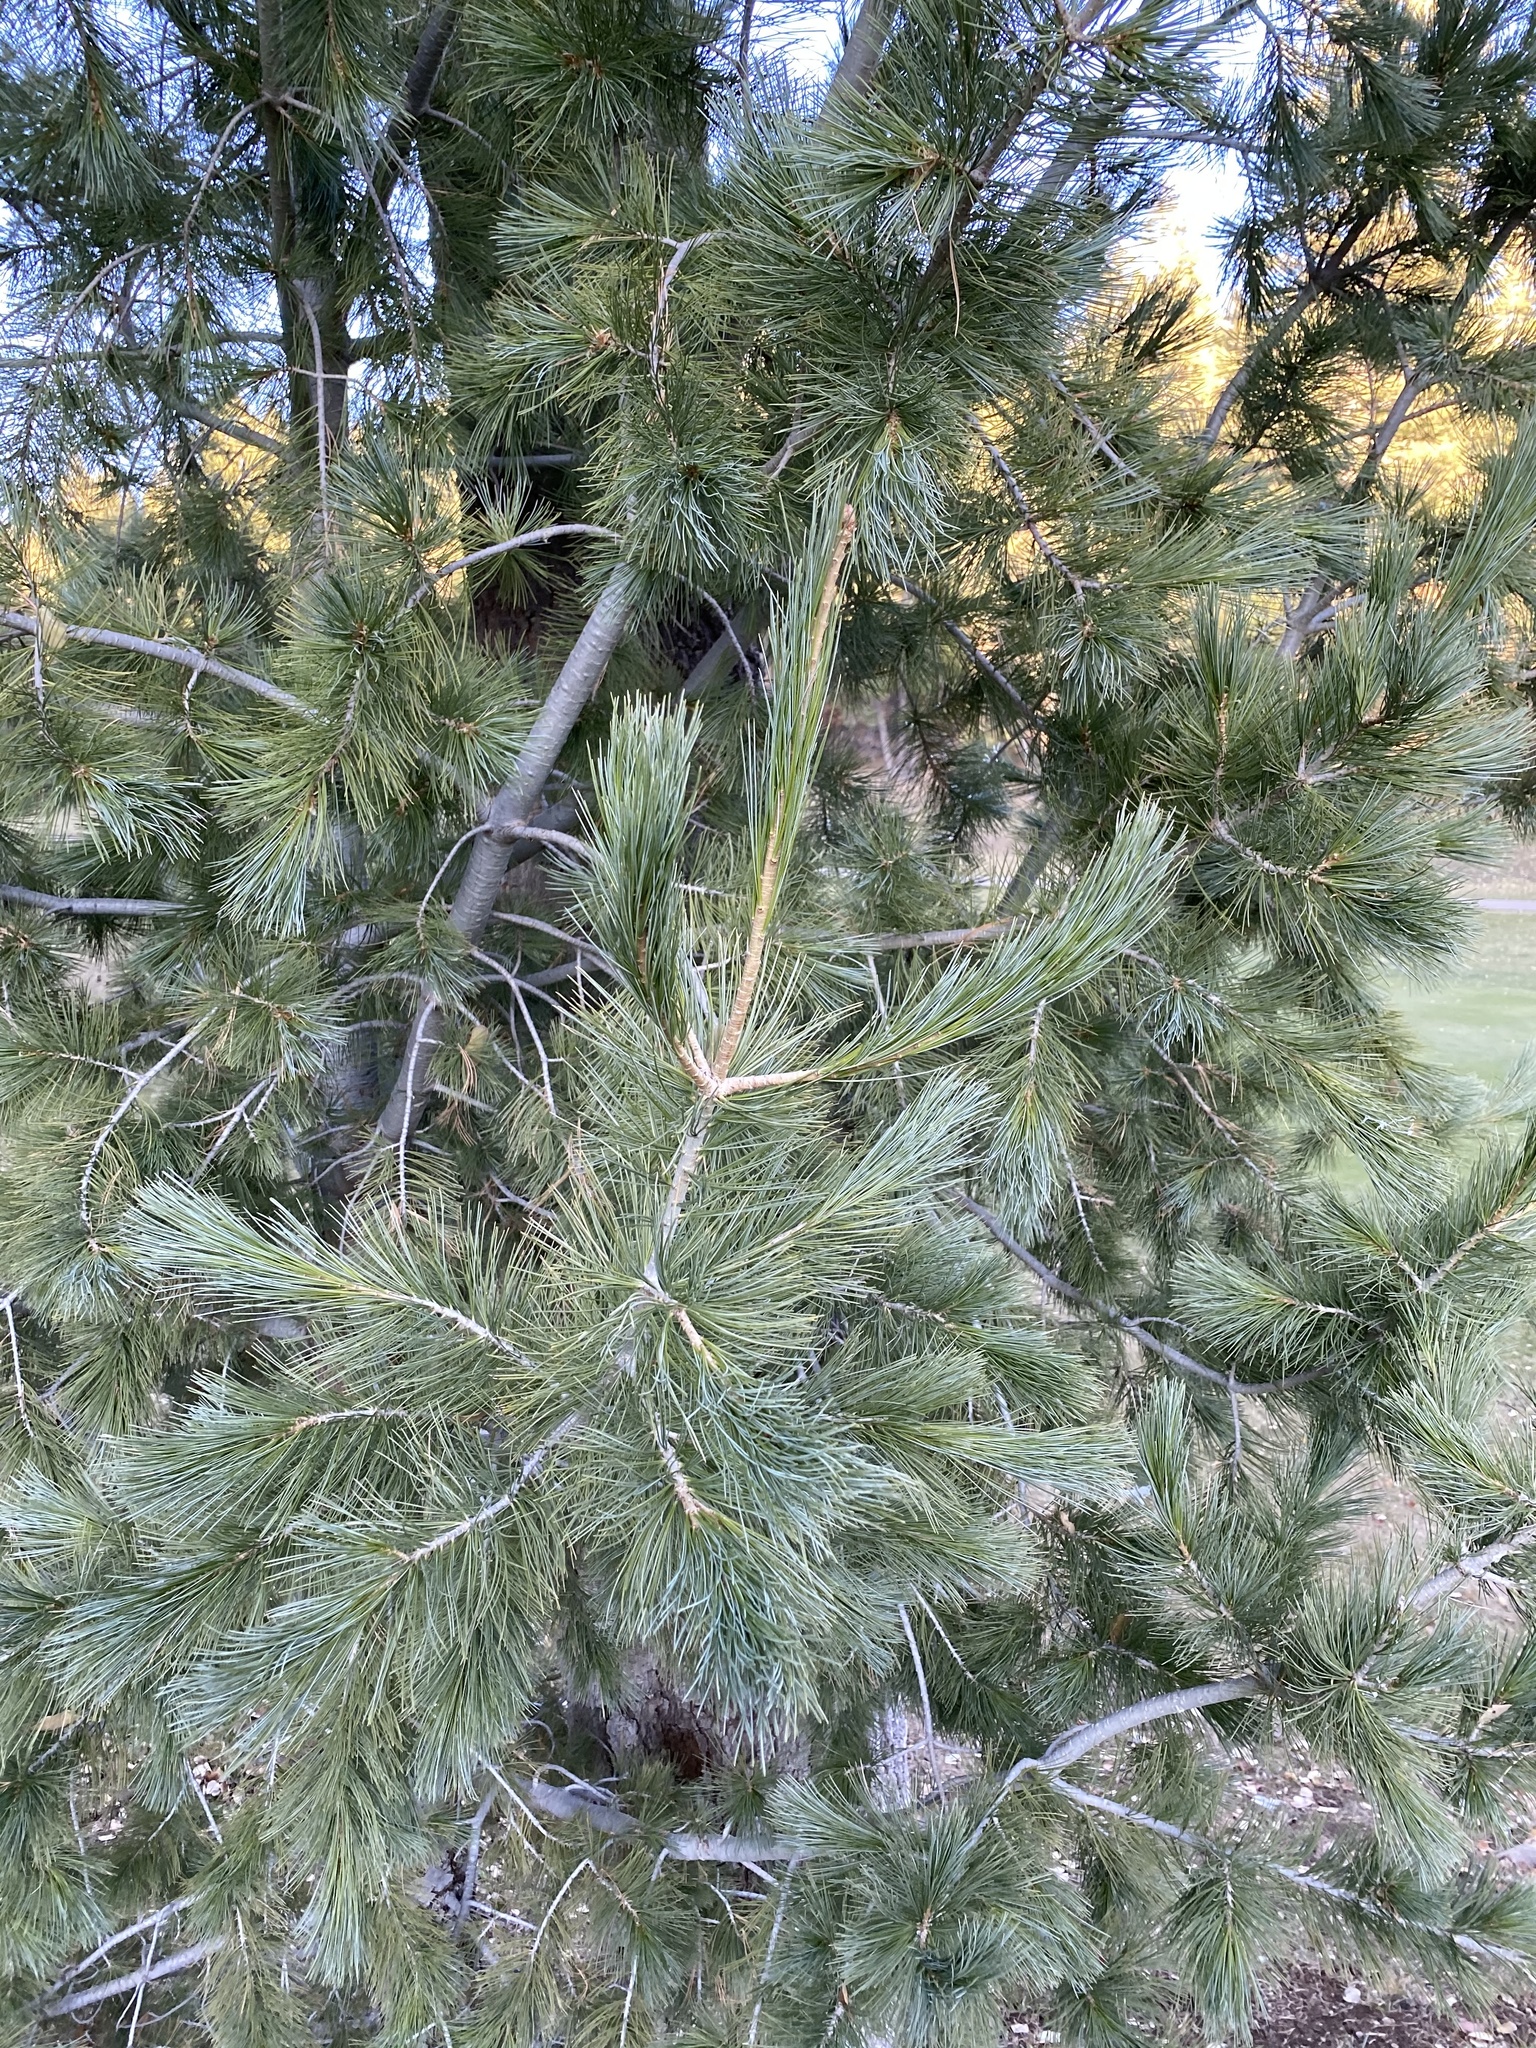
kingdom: Plantae
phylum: Tracheophyta
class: Pinopsida
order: Pinales
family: Pinaceae
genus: Pinus
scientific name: Pinus strobiformis
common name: Southwestern white pine
